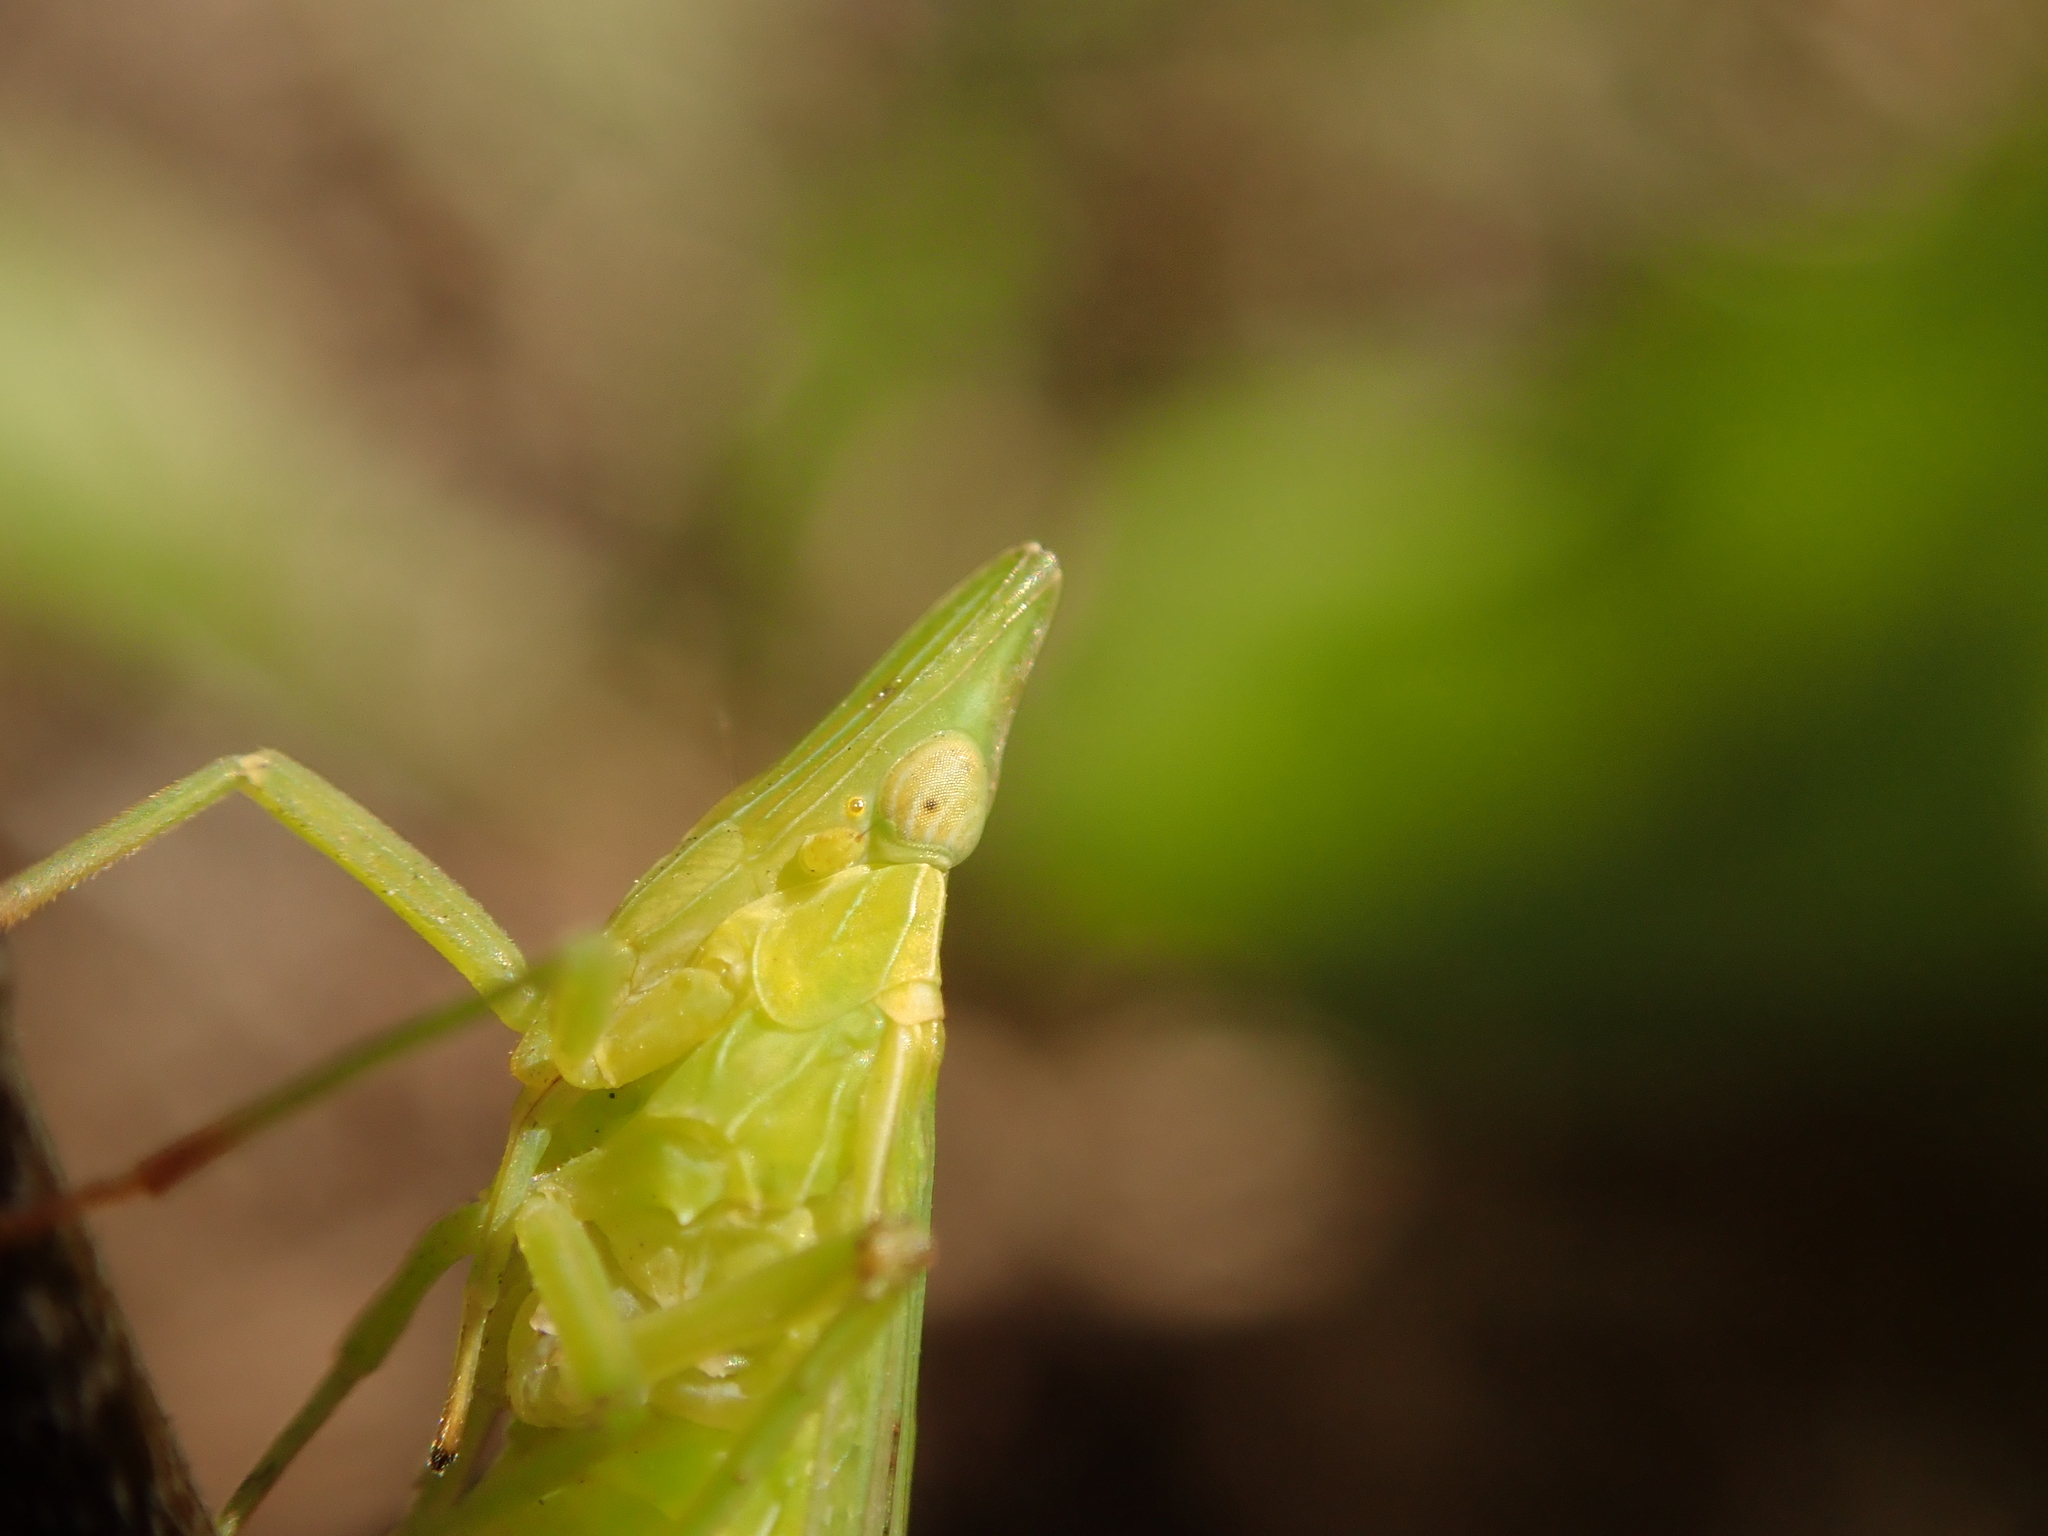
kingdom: Animalia
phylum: Arthropoda
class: Insecta
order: Hemiptera
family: Dictyopharidae
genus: Dictyophara
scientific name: Dictyophara europaea
